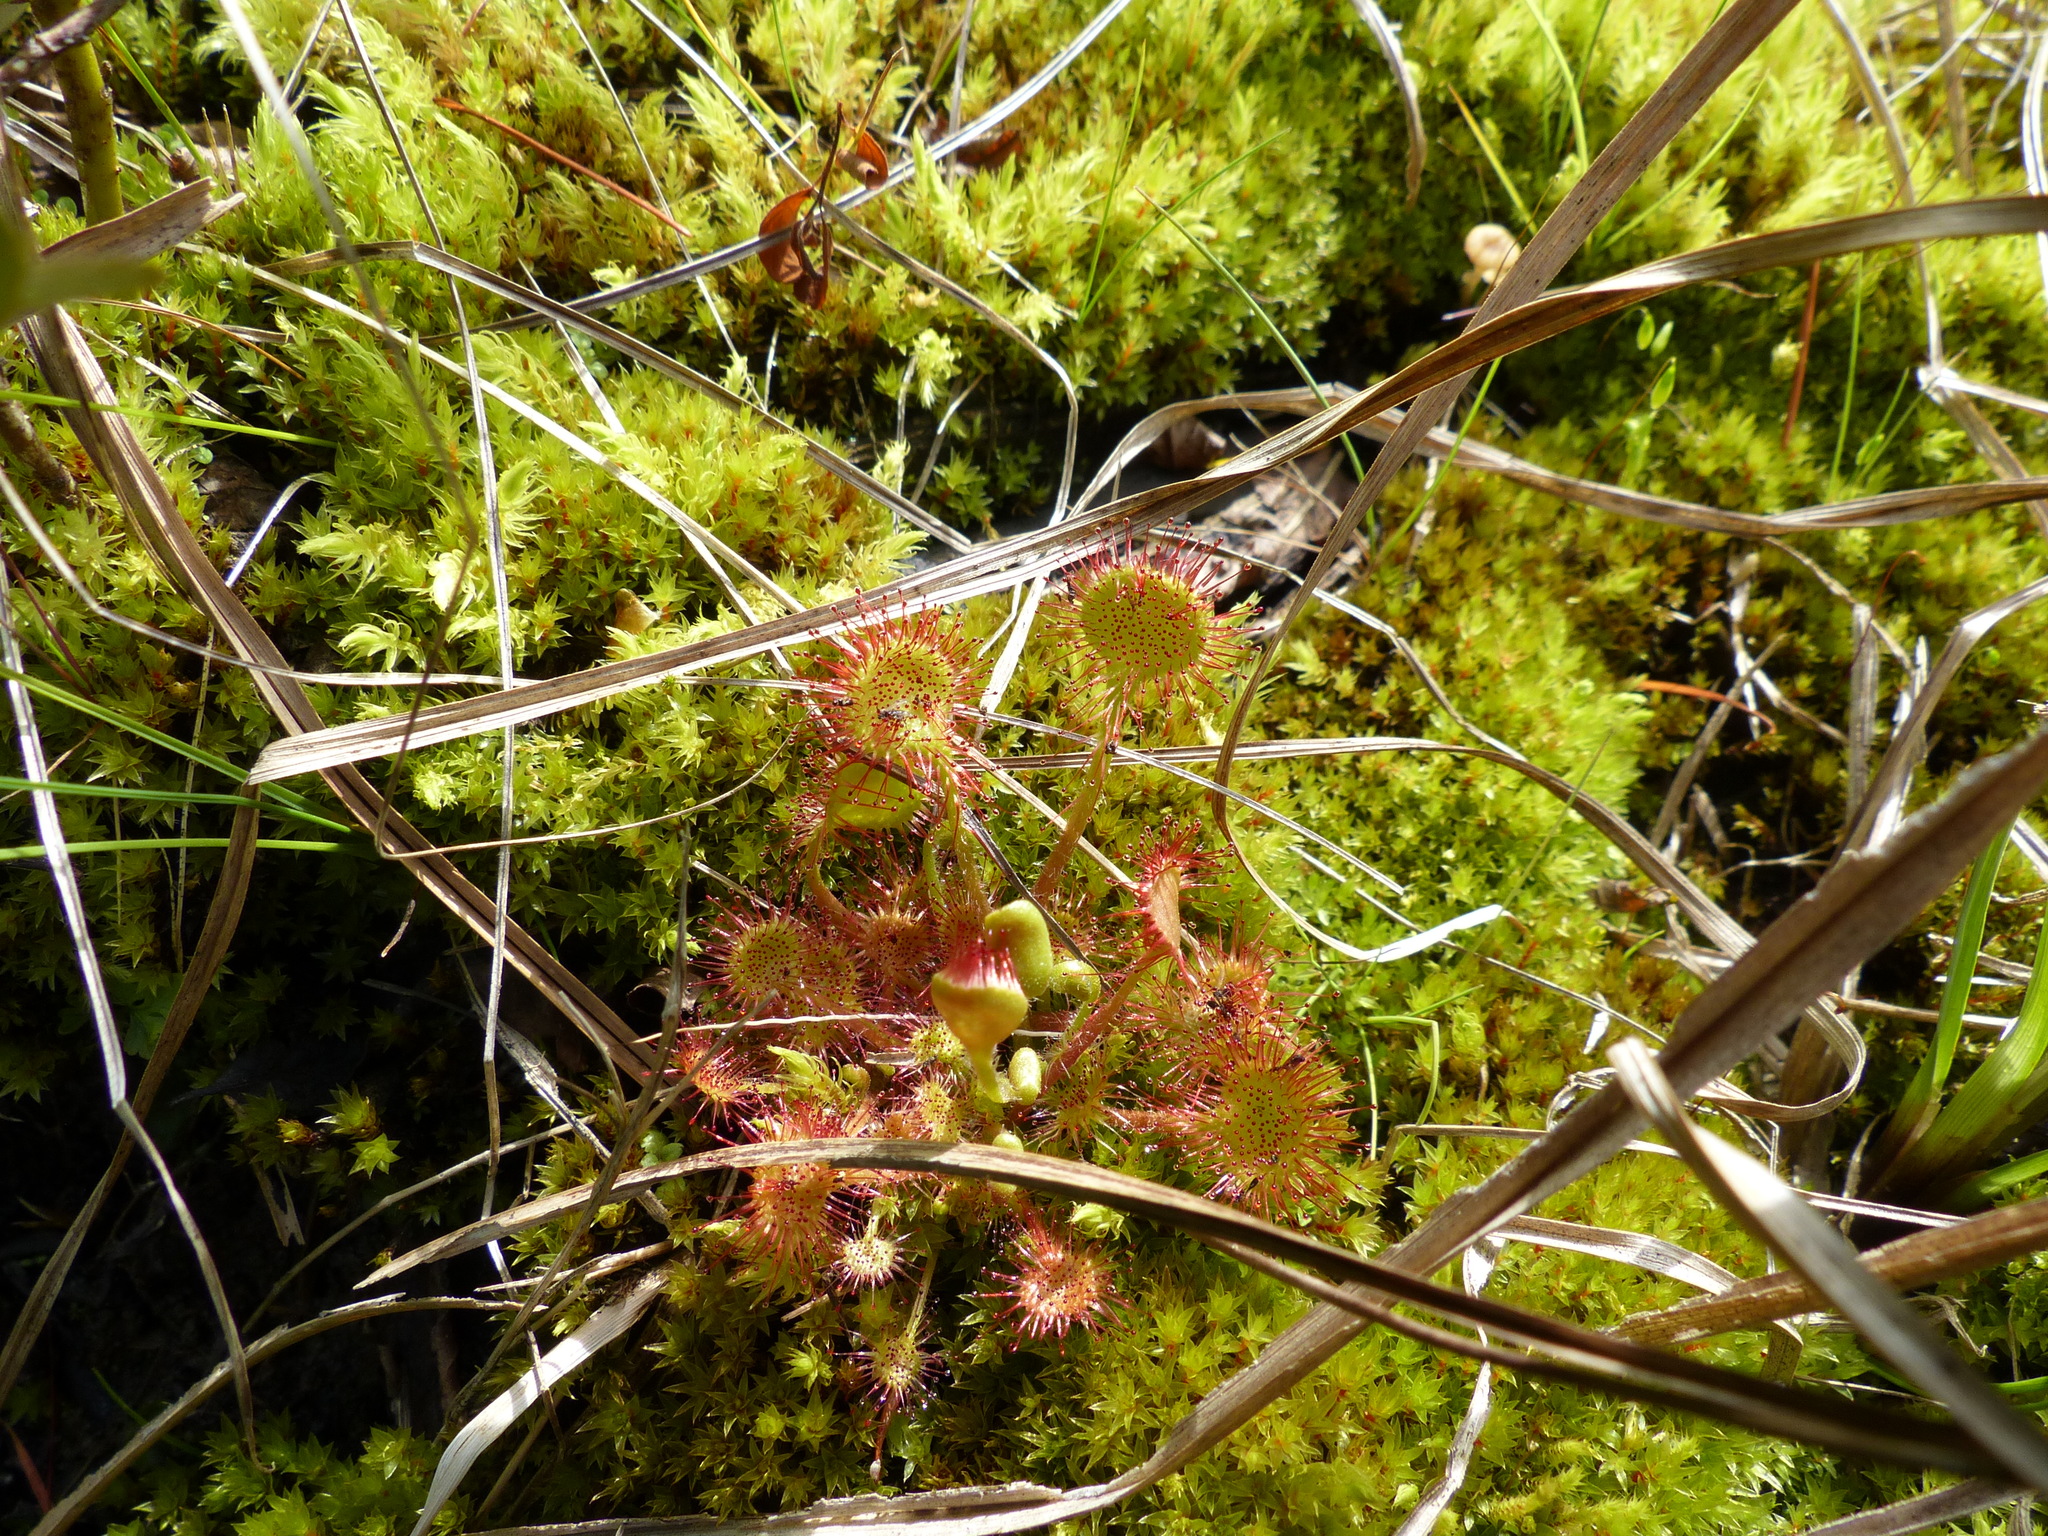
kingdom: Plantae
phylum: Tracheophyta
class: Magnoliopsida
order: Caryophyllales
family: Droseraceae
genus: Drosera
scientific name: Drosera rotundifolia
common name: Round-leaved sundew
